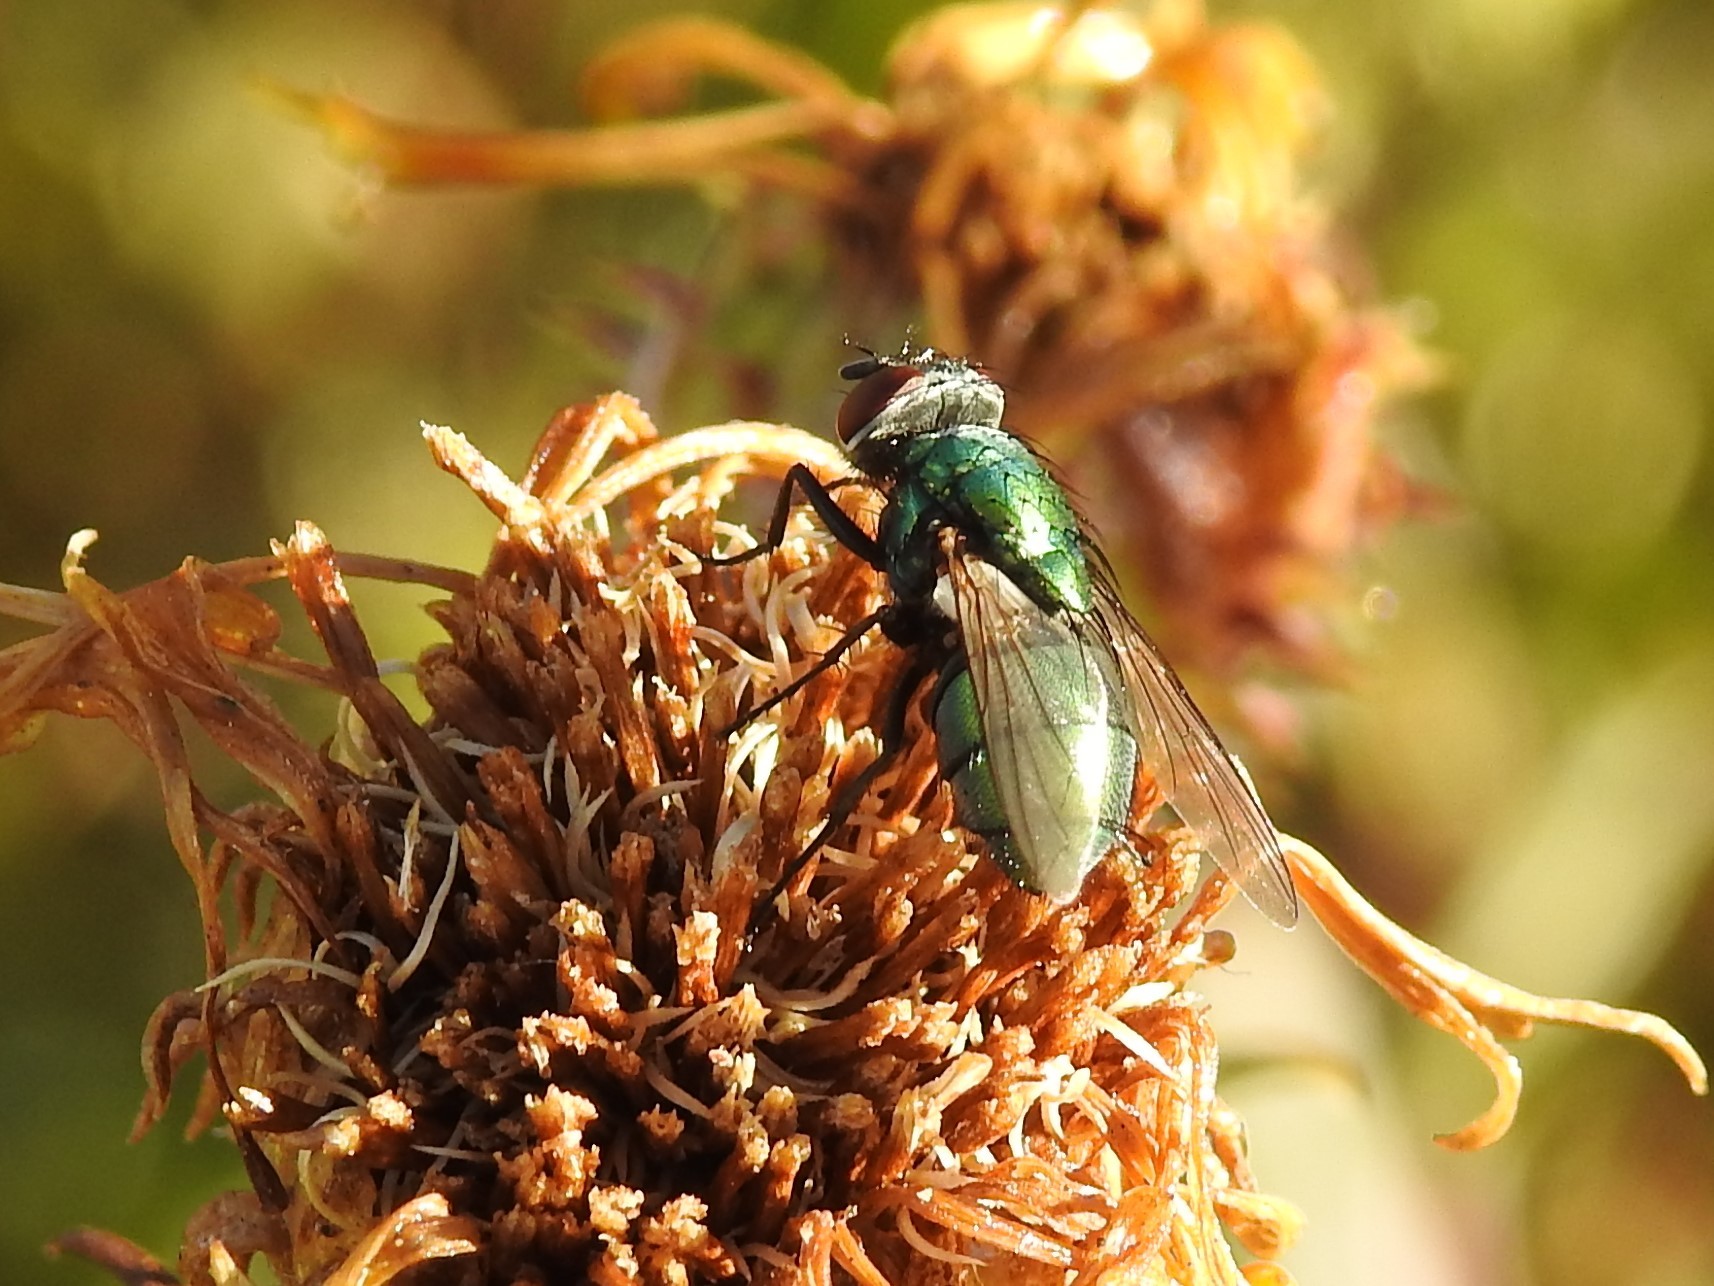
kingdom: Animalia
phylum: Arthropoda
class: Insecta
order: Diptera
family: Calliphoridae
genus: Lucilia
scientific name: Lucilia sericata
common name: Blow fly
